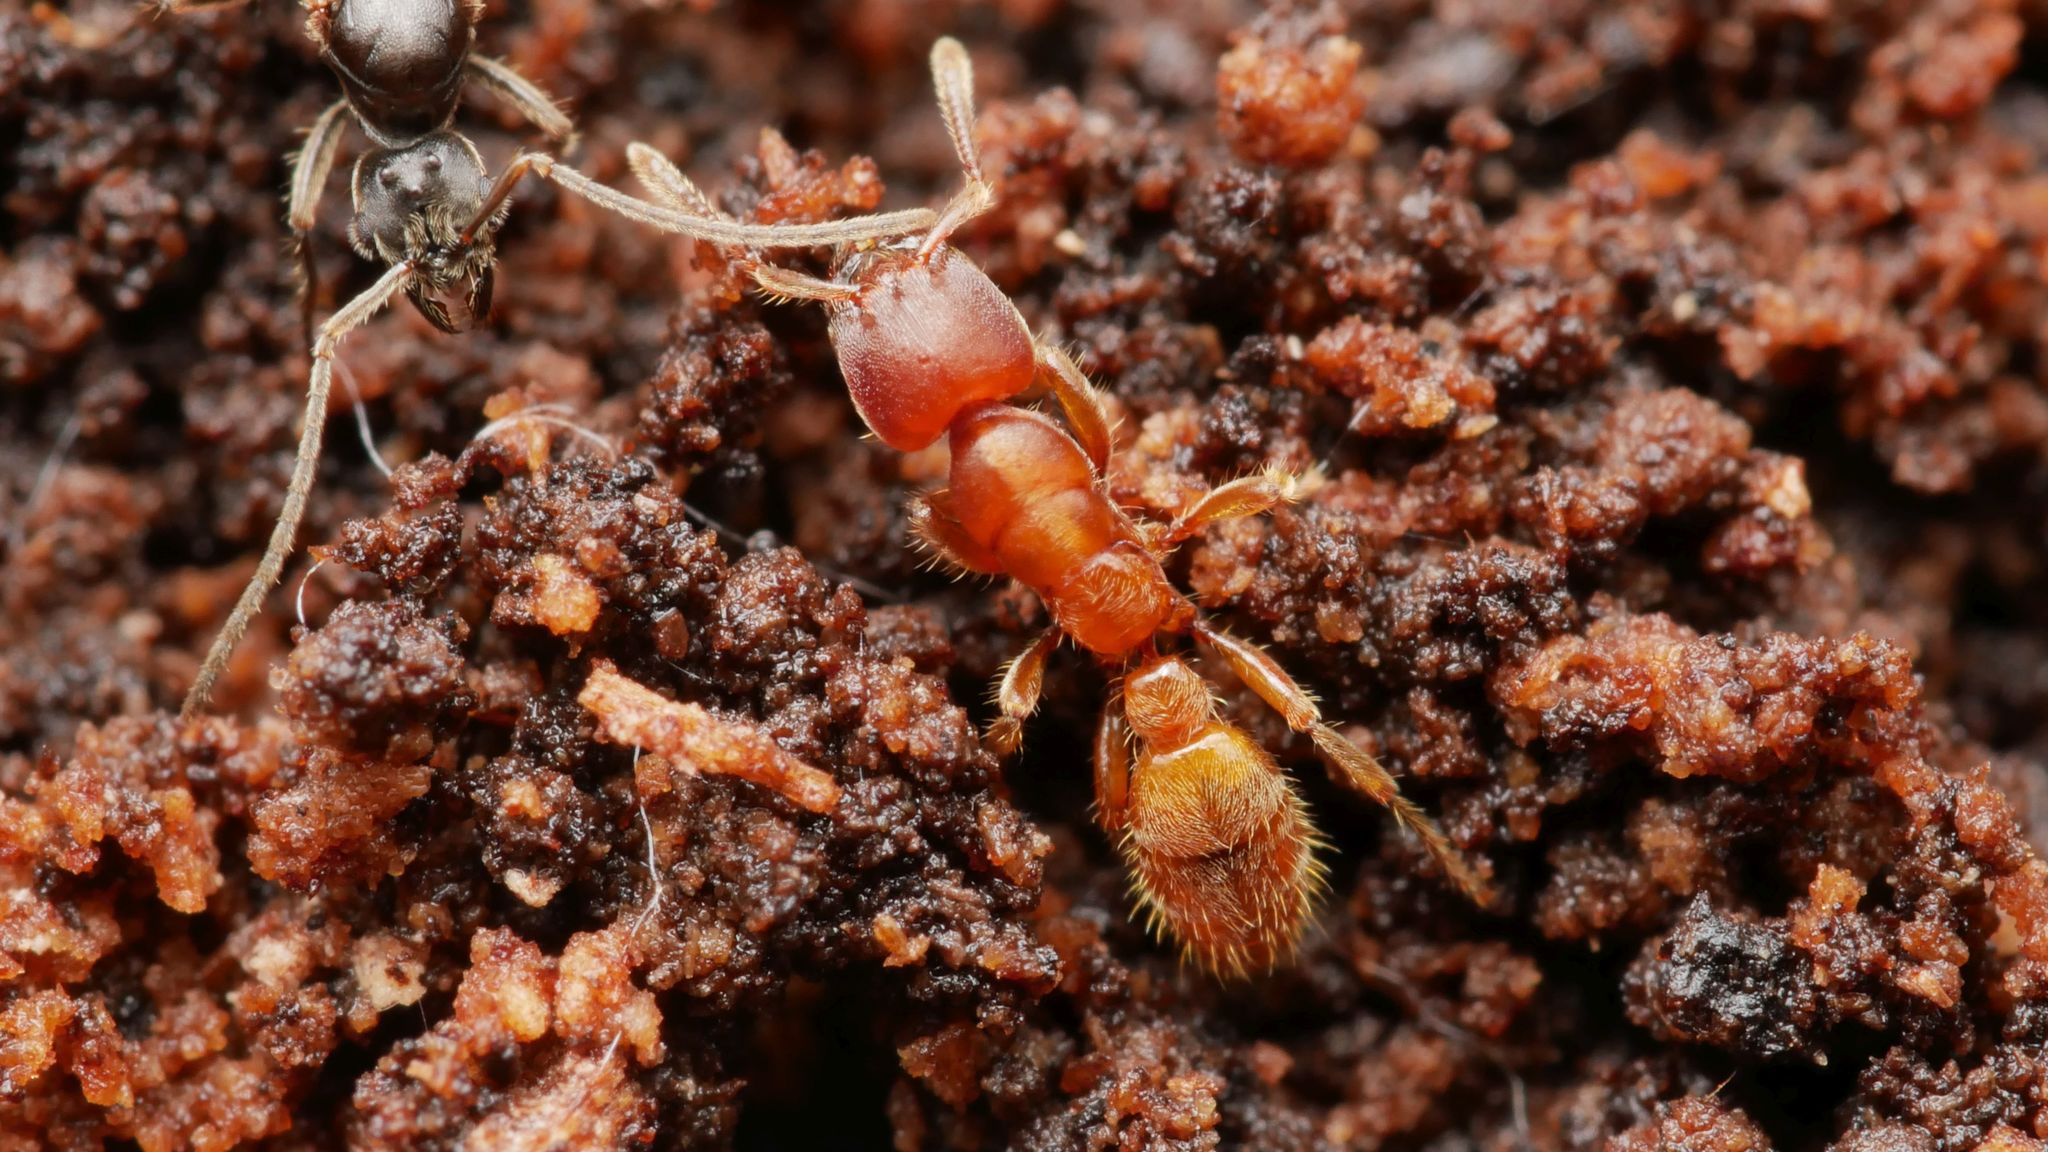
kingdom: Animalia
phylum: Arthropoda
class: Insecta
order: Hymenoptera
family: Formicidae
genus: Typhlomyrmex
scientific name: Typhlomyrmex rogenhoferi
